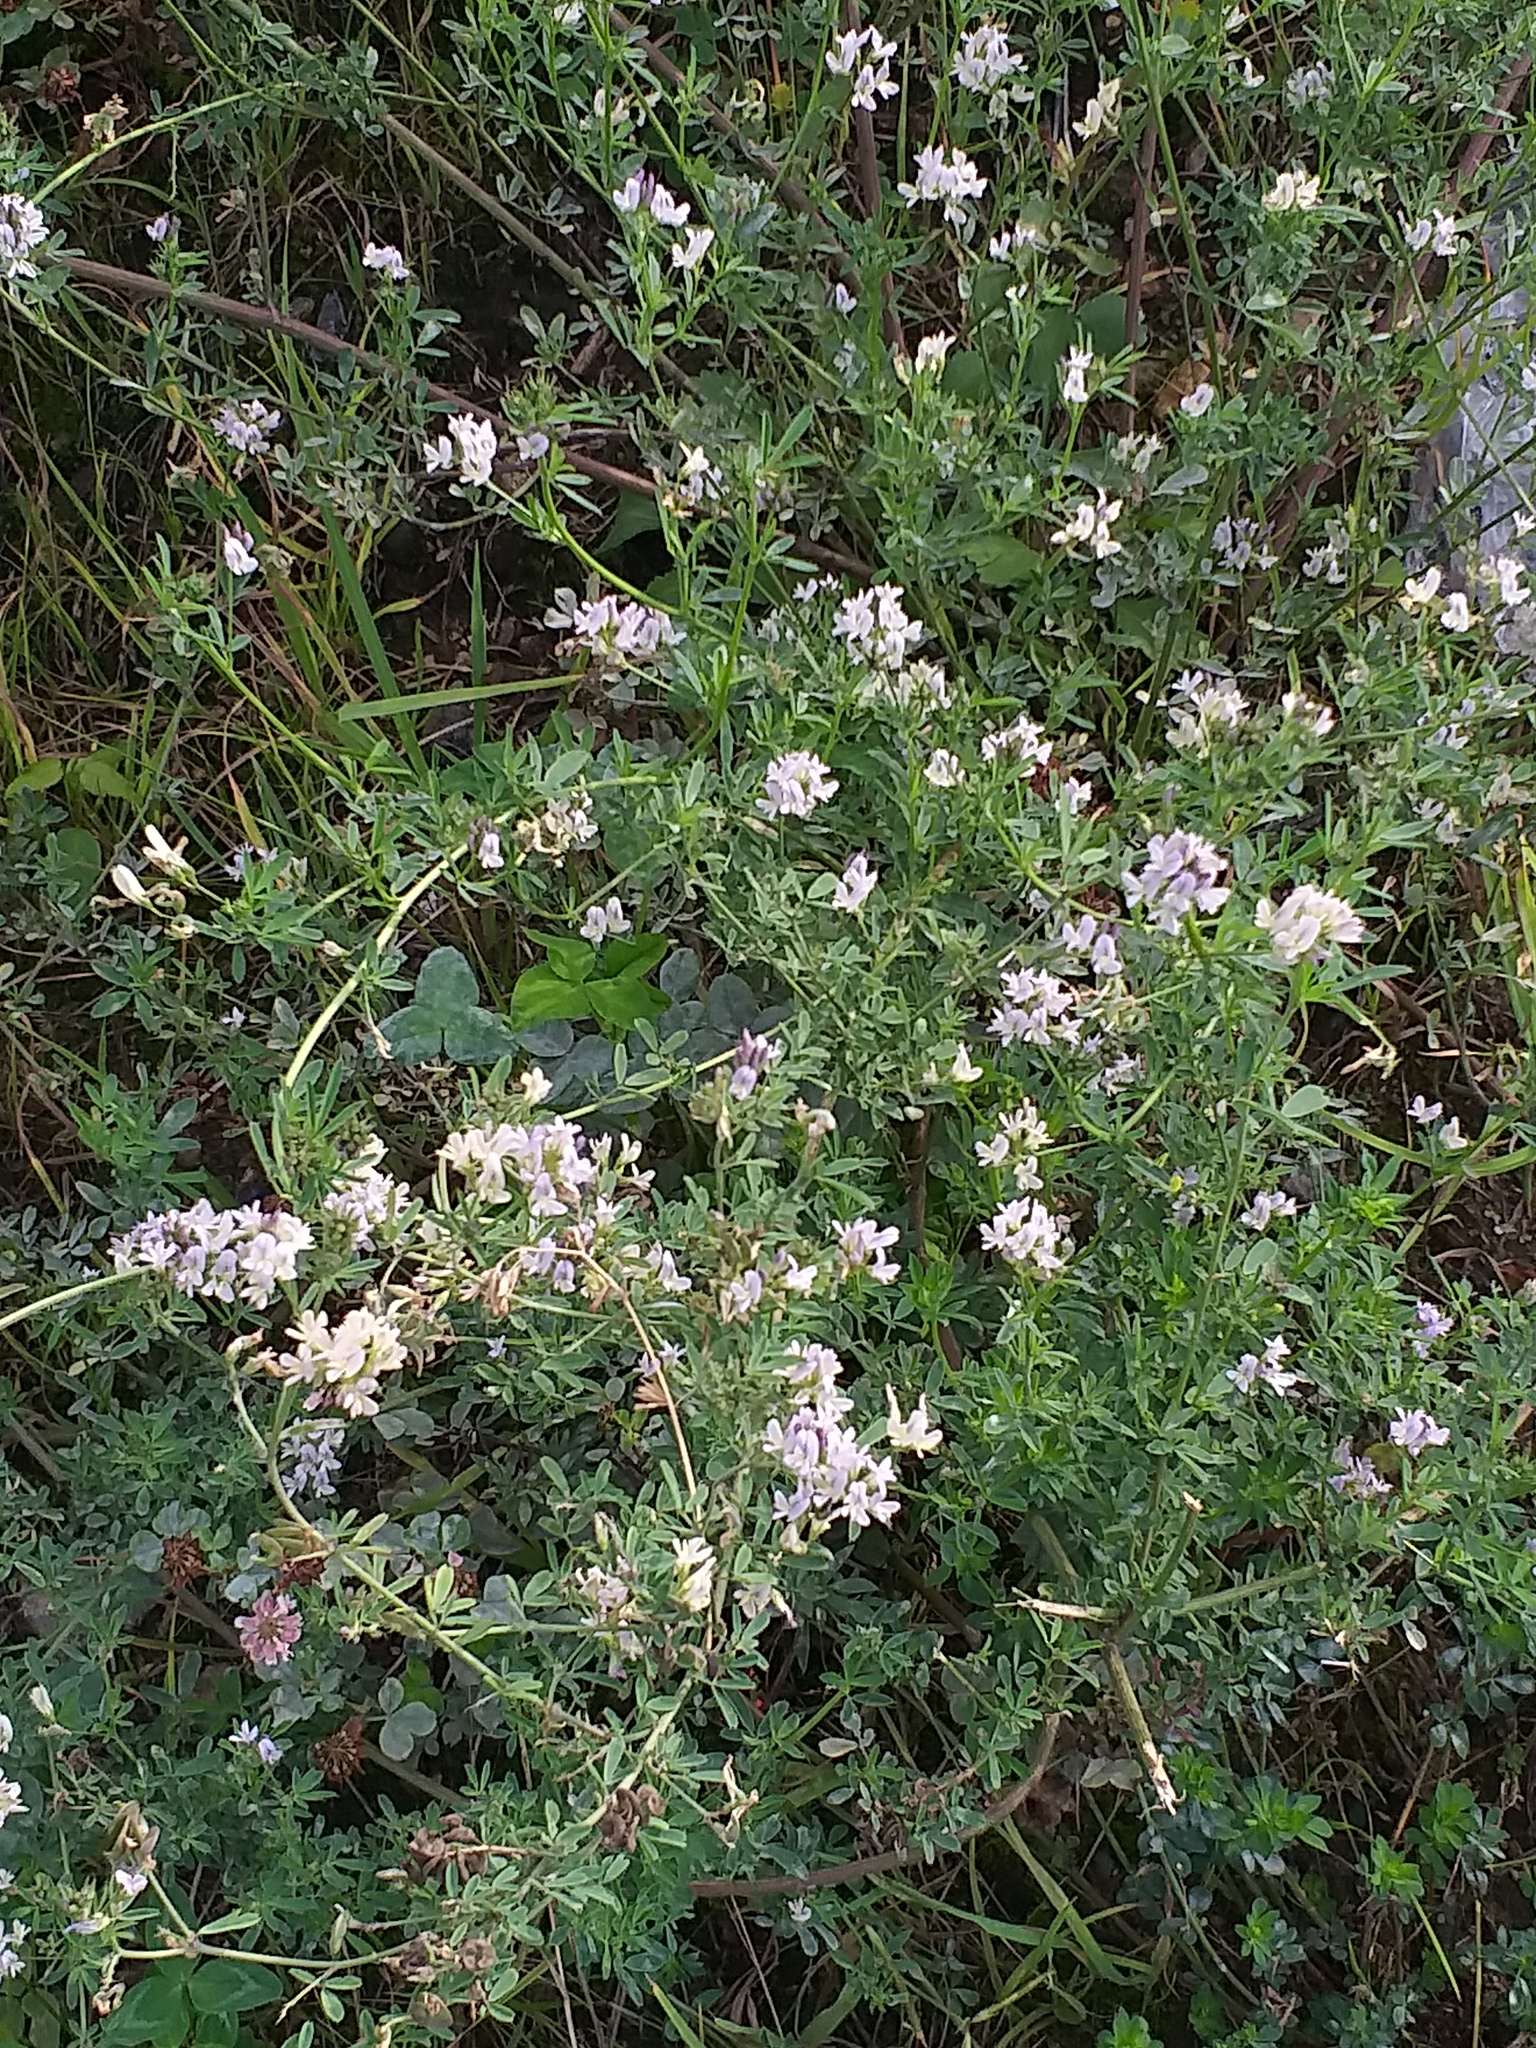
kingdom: Plantae
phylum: Tracheophyta
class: Magnoliopsida
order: Fabales
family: Fabaceae
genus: Medicago
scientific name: Medicago varia
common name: Sand lucerne
